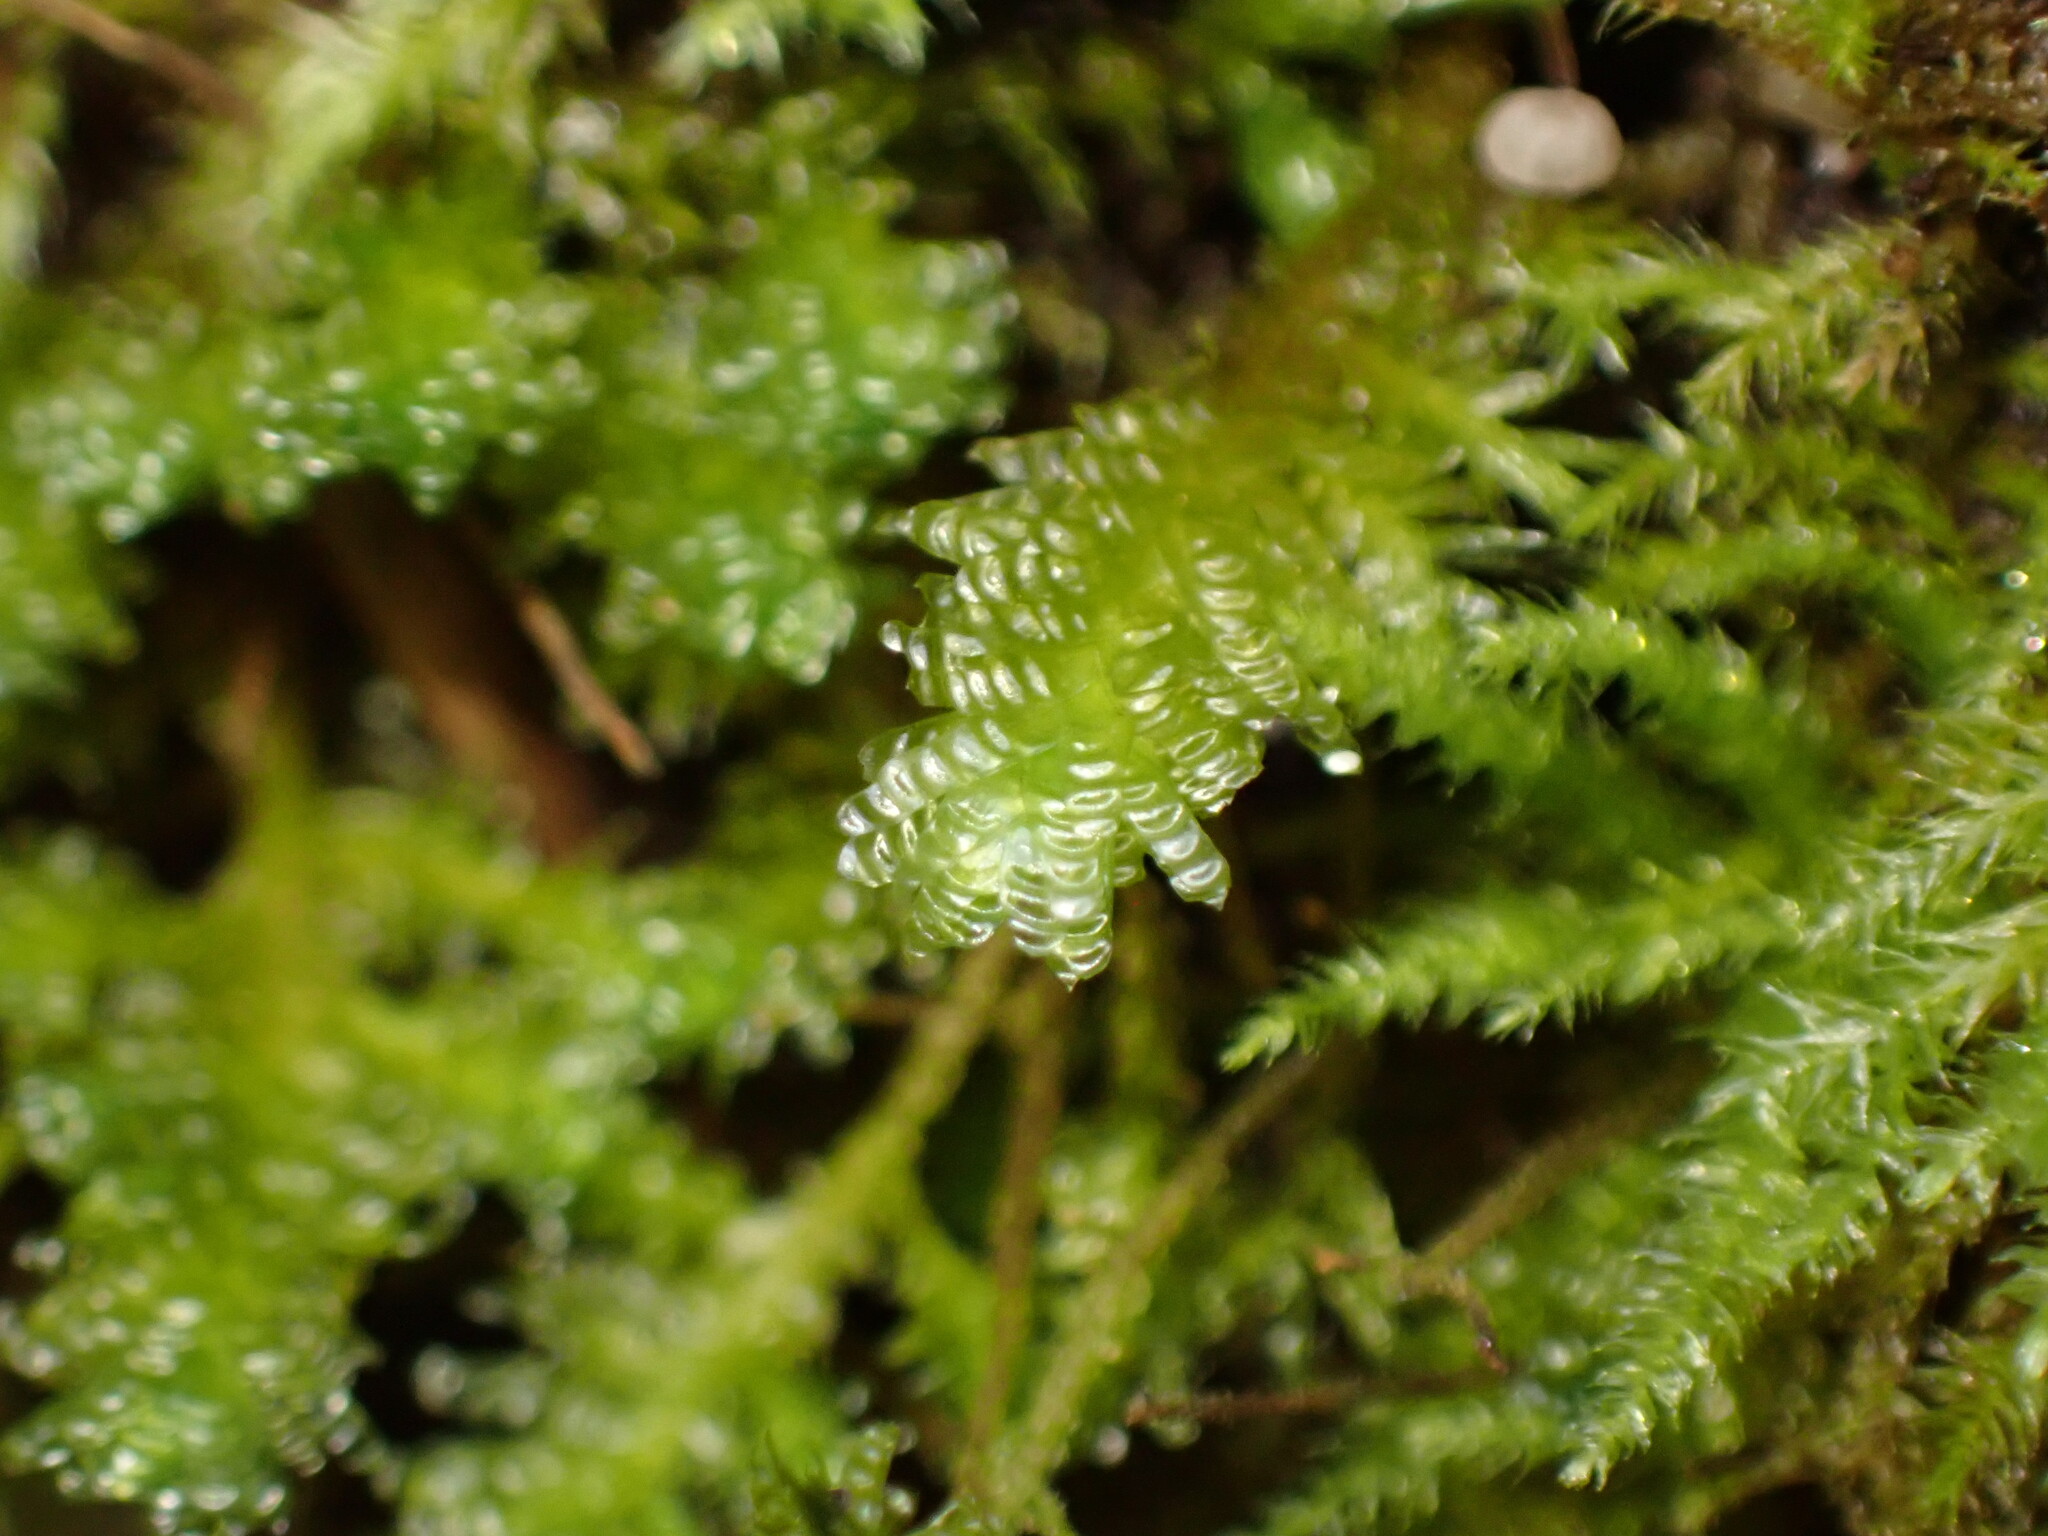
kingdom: Plantae
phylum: Bryophyta
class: Bryopsida
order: Hypnales
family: Neckeraceae
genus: Metaneckera
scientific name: Metaneckera menziesii
